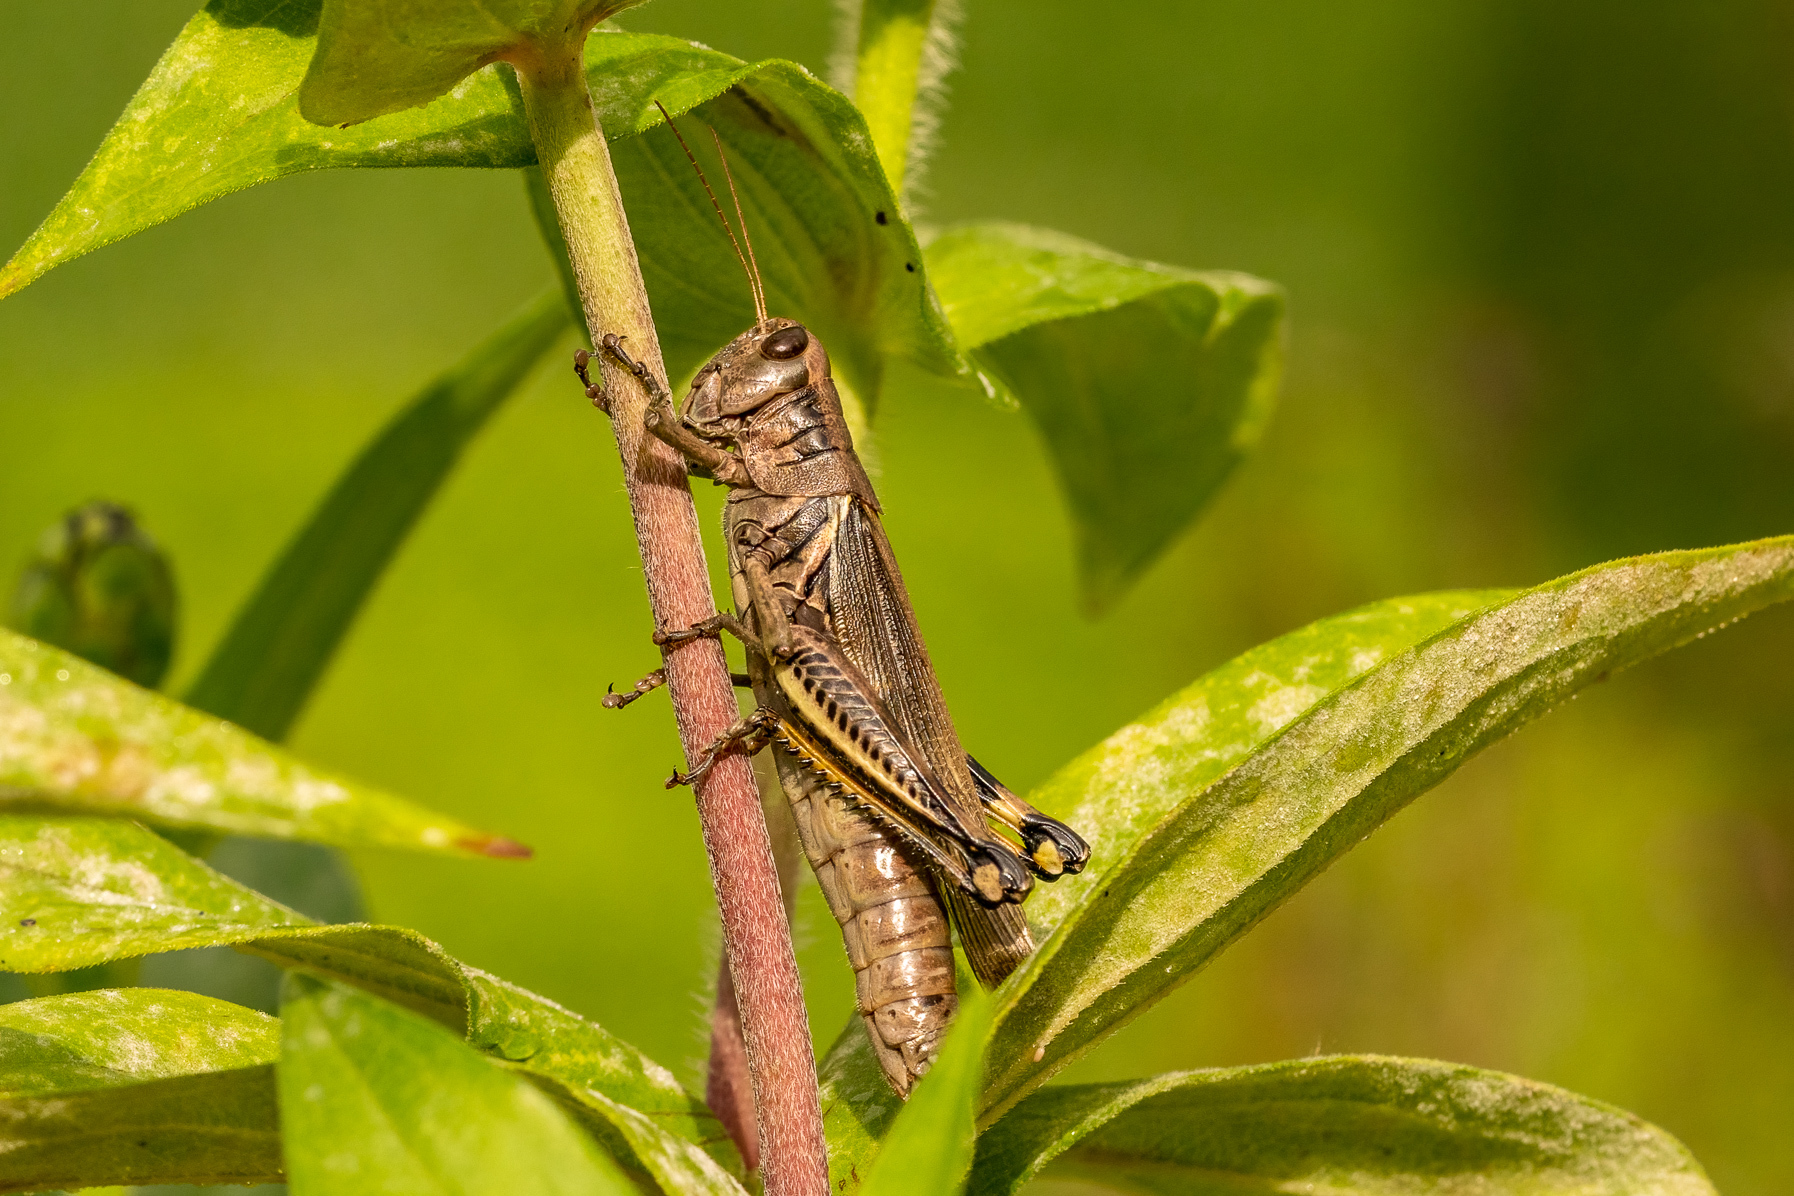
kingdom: Animalia
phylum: Arthropoda
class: Insecta
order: Orthoptera
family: Acrididae
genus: Melanoplus
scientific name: Melanoplus differentialis
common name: Differential grasshopper
